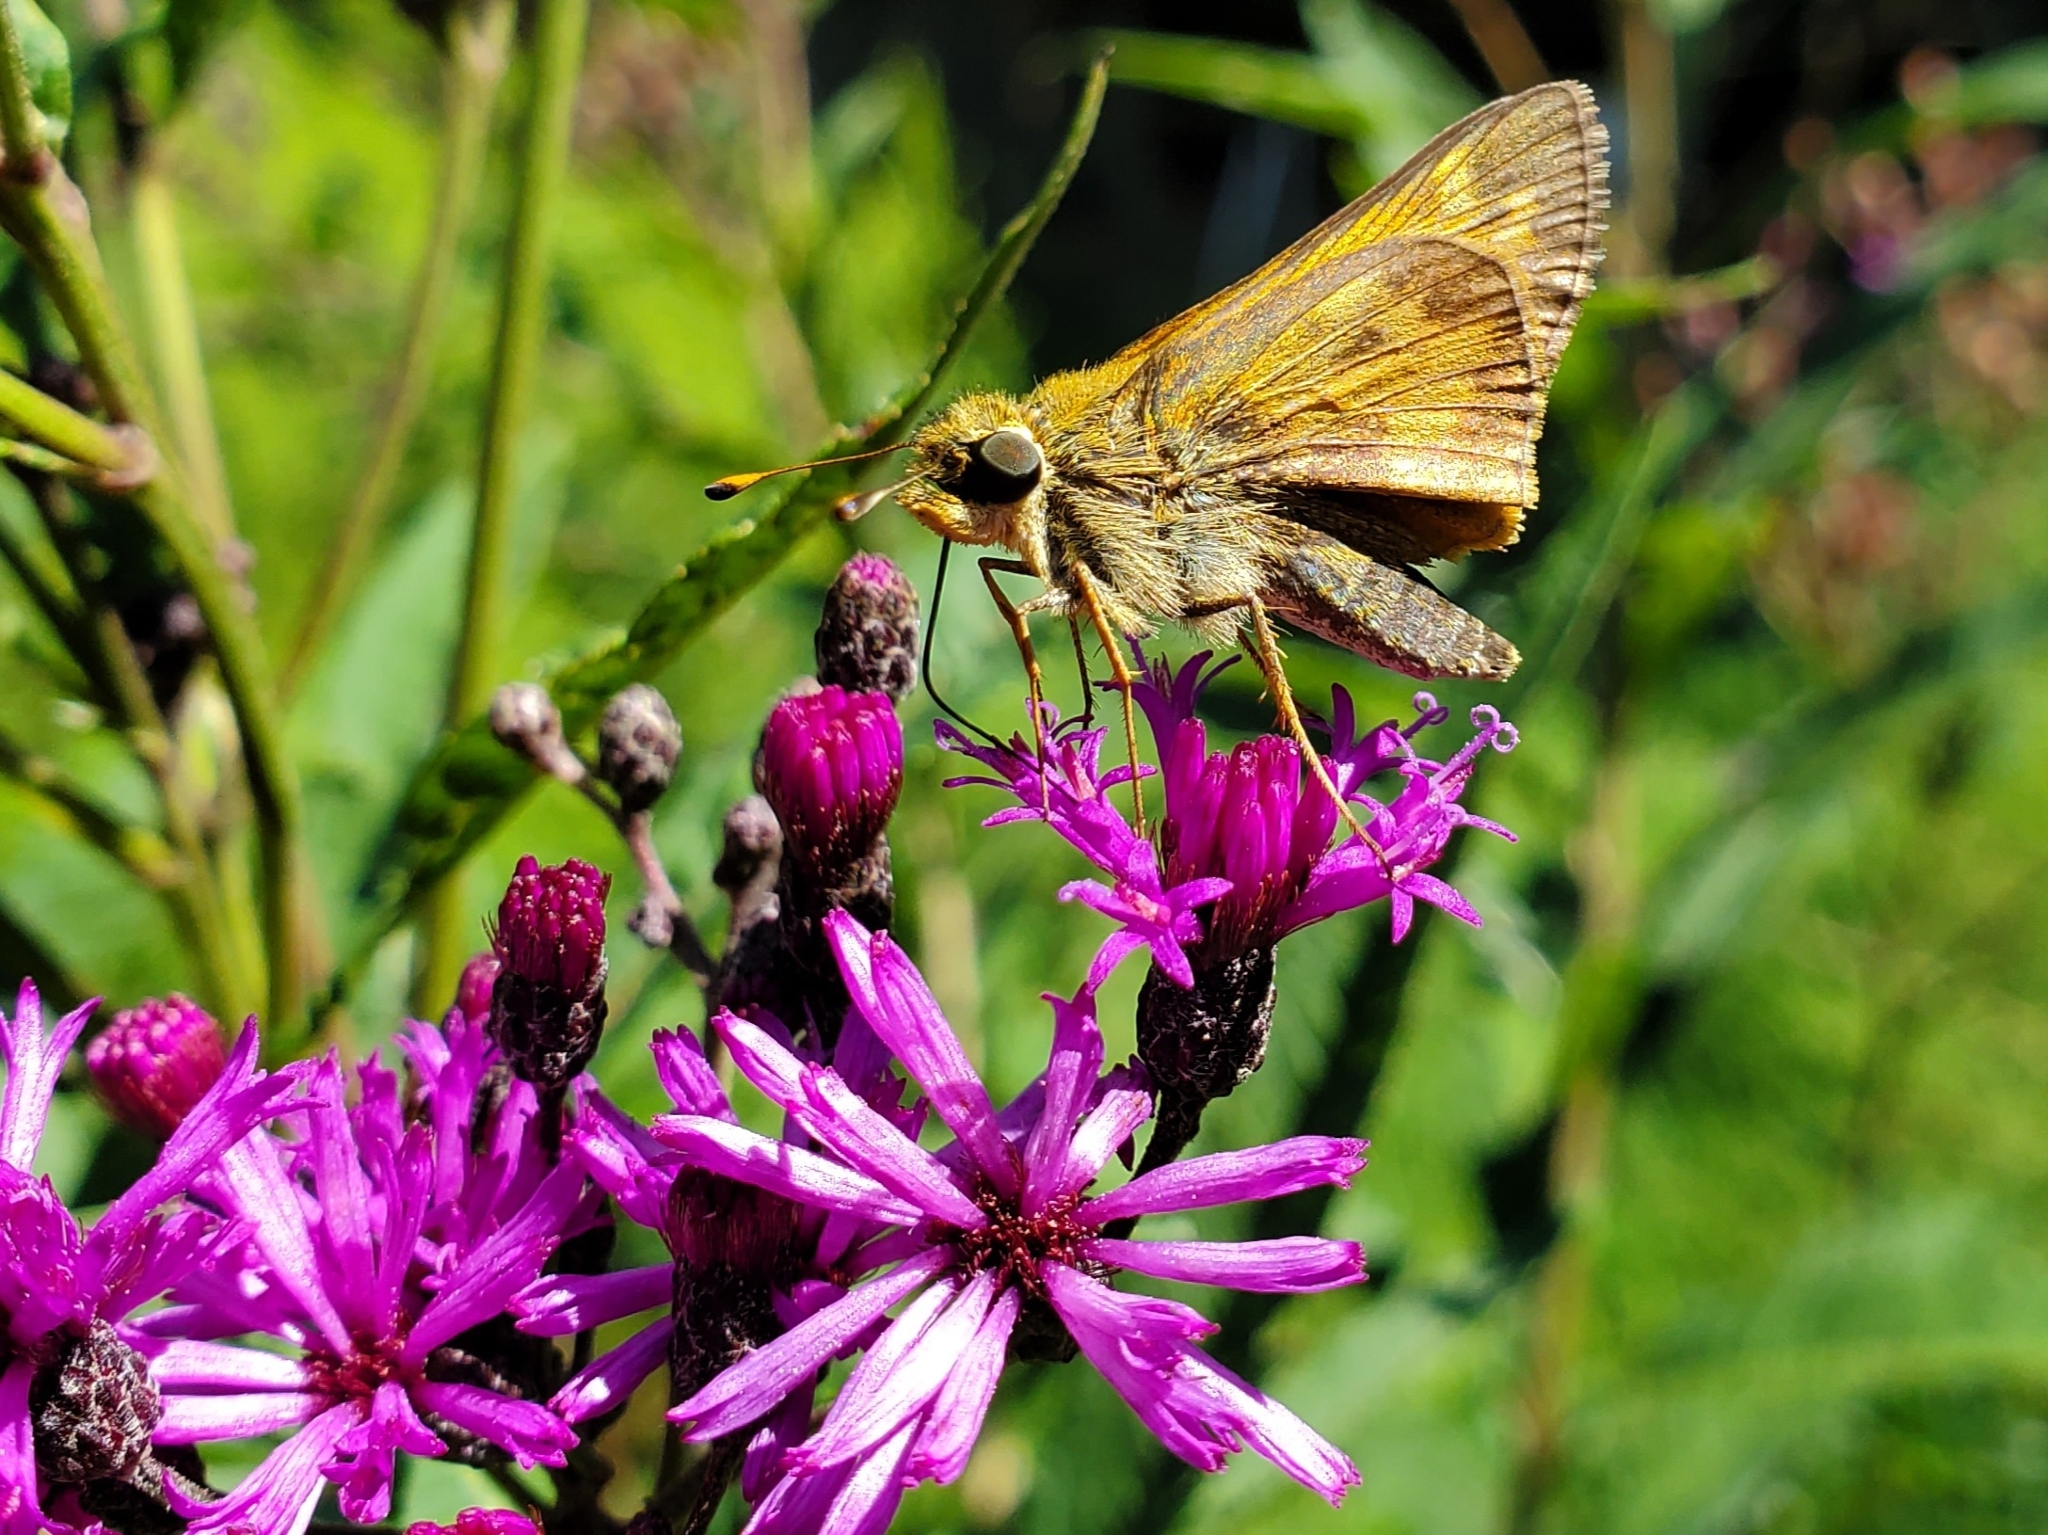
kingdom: Animalia
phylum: Arthropoda
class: Insecta
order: Lepidoptera
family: Hesperiidae
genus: Atalopedes
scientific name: Atalopedes
